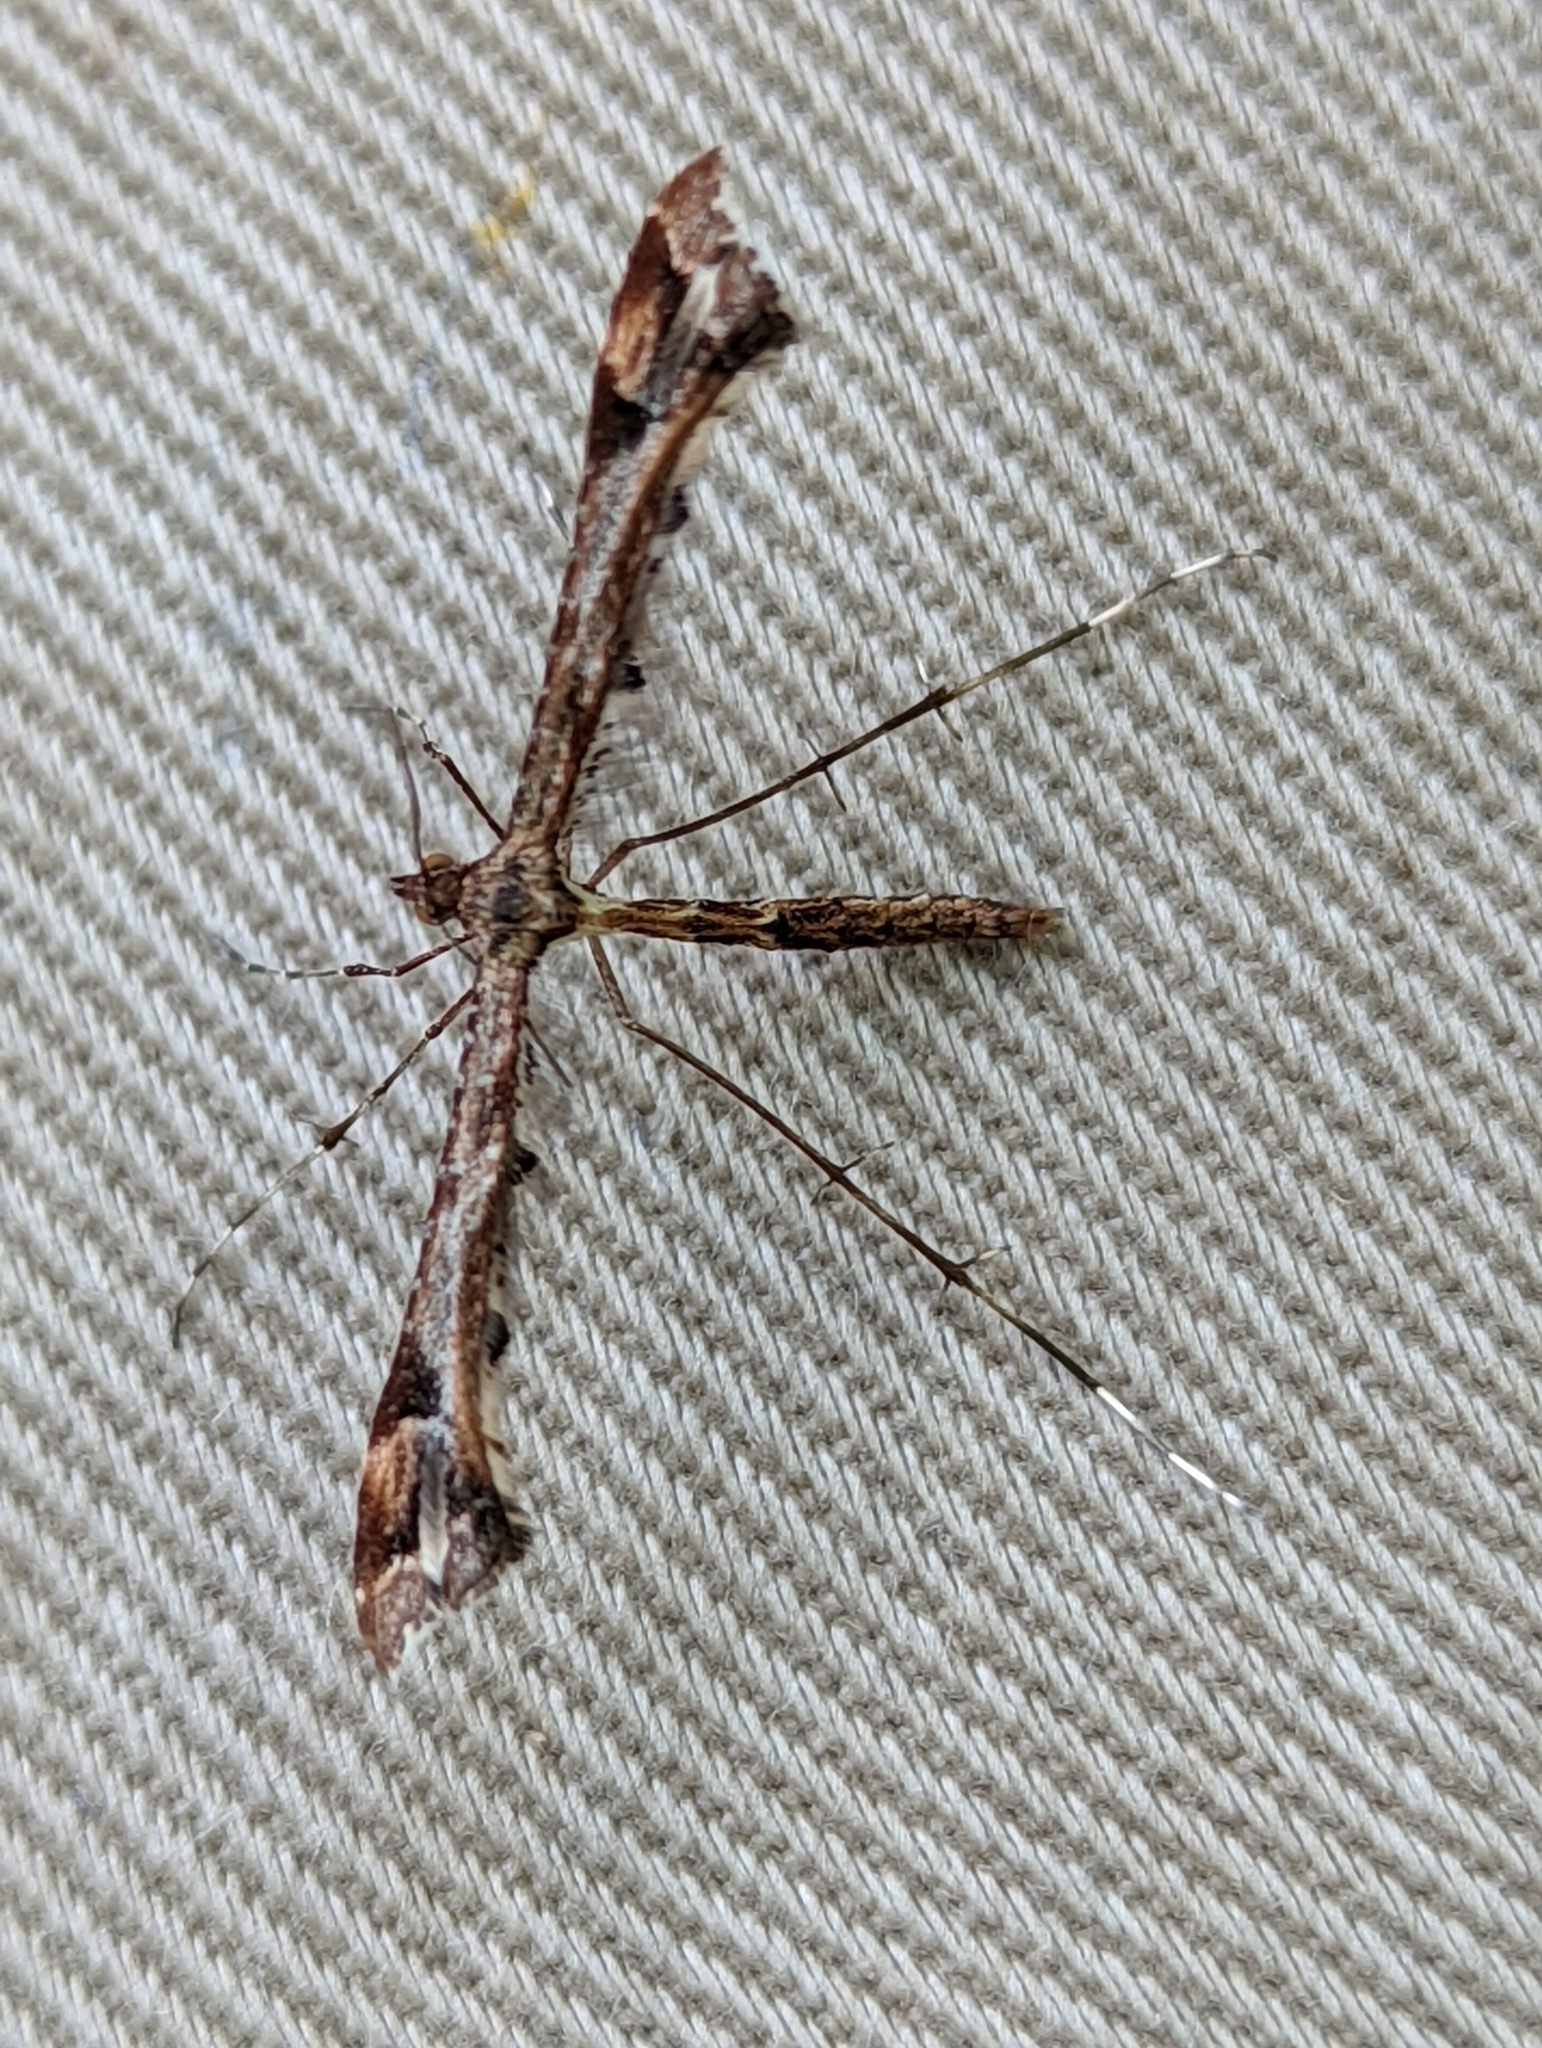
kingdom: Animalia
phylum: Arthropoda
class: Insecta
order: Lepidoptera
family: Pterophoridae
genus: Amblyptilia
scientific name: Amblyptilia acanthadactyla
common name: Beautiful plume
